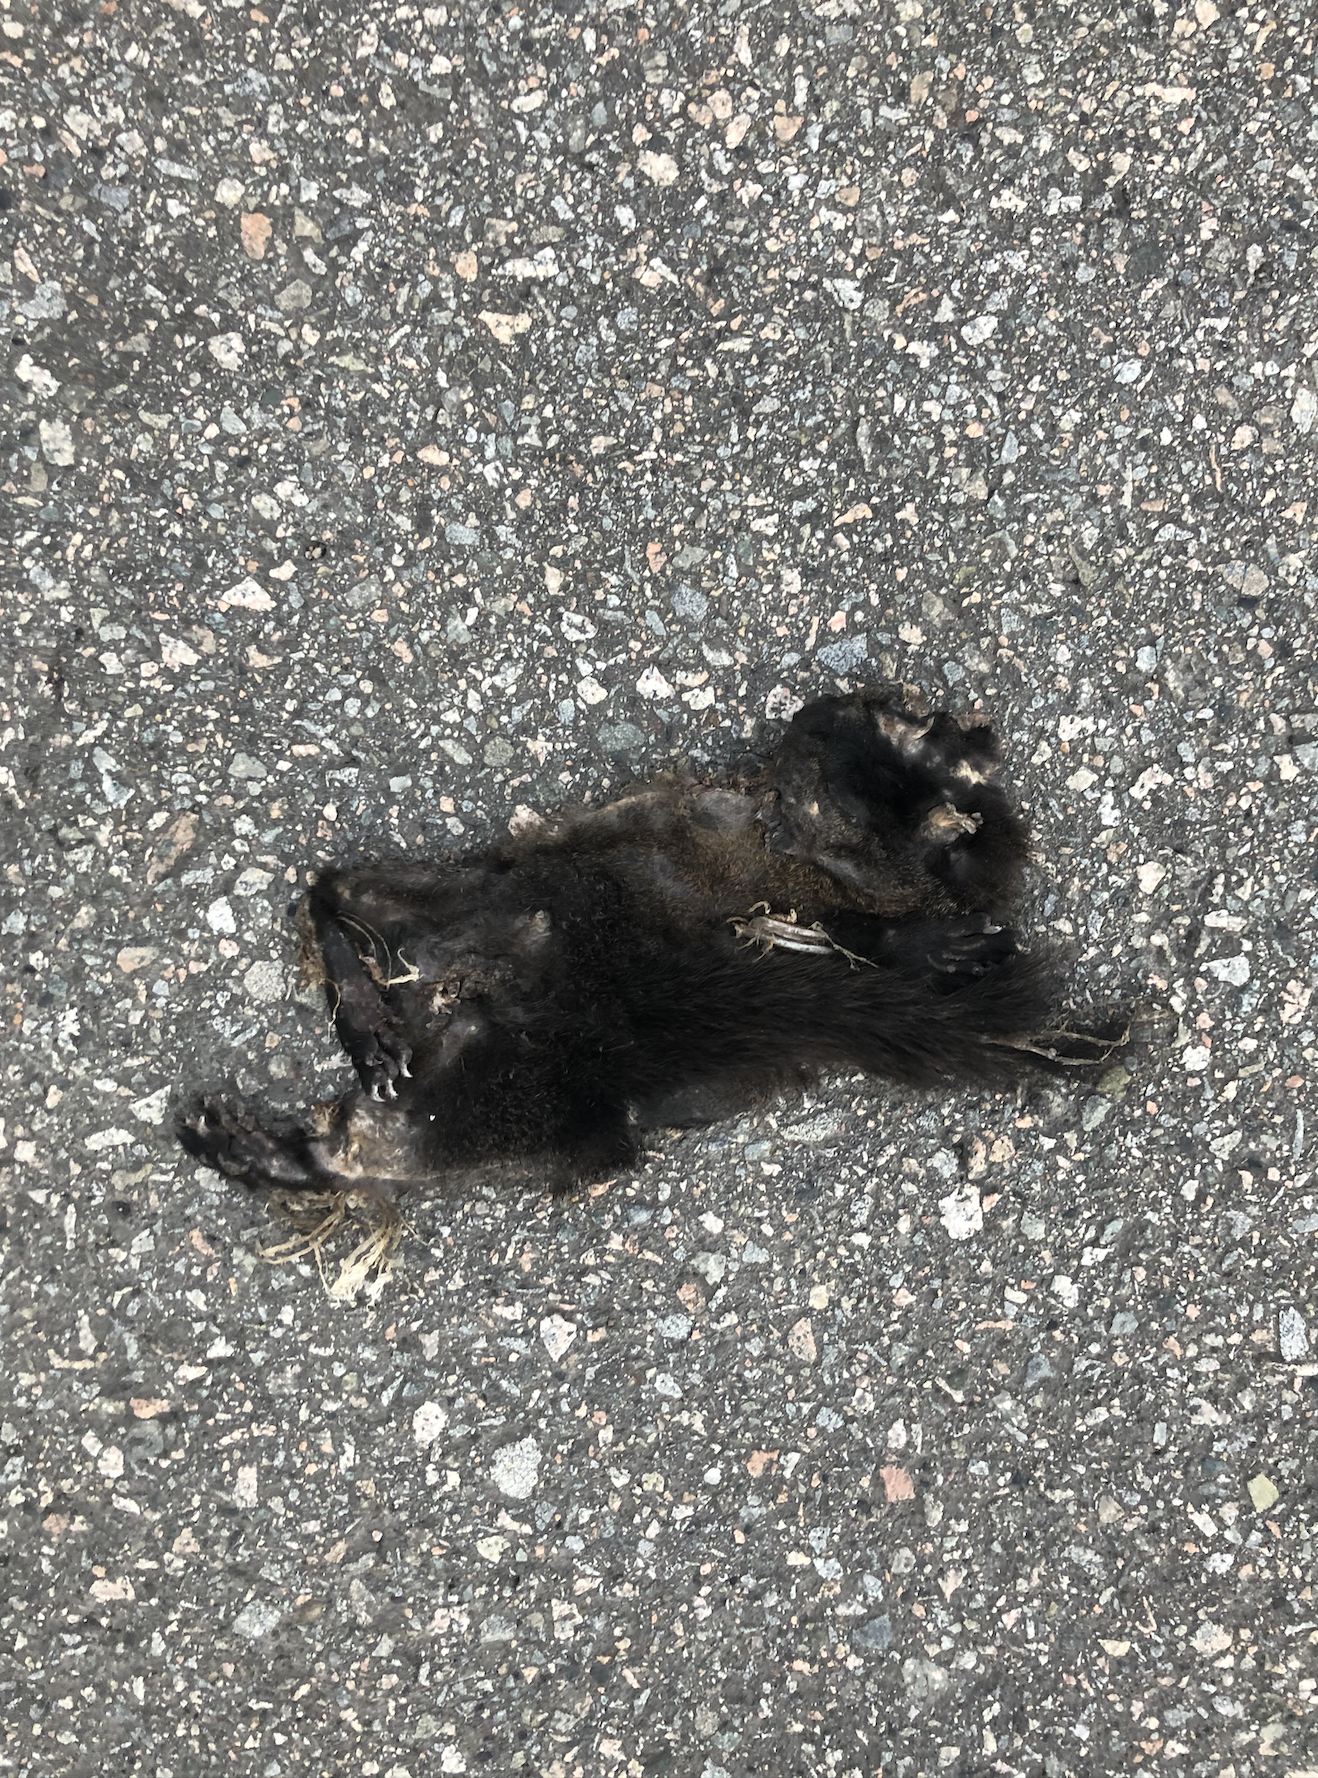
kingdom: Animalia
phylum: Chordata
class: Mammalia
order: Rodentia
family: Sciuridae
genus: Sciurus
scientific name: Sciurus carolinensis
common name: Eastern gray squirrel
